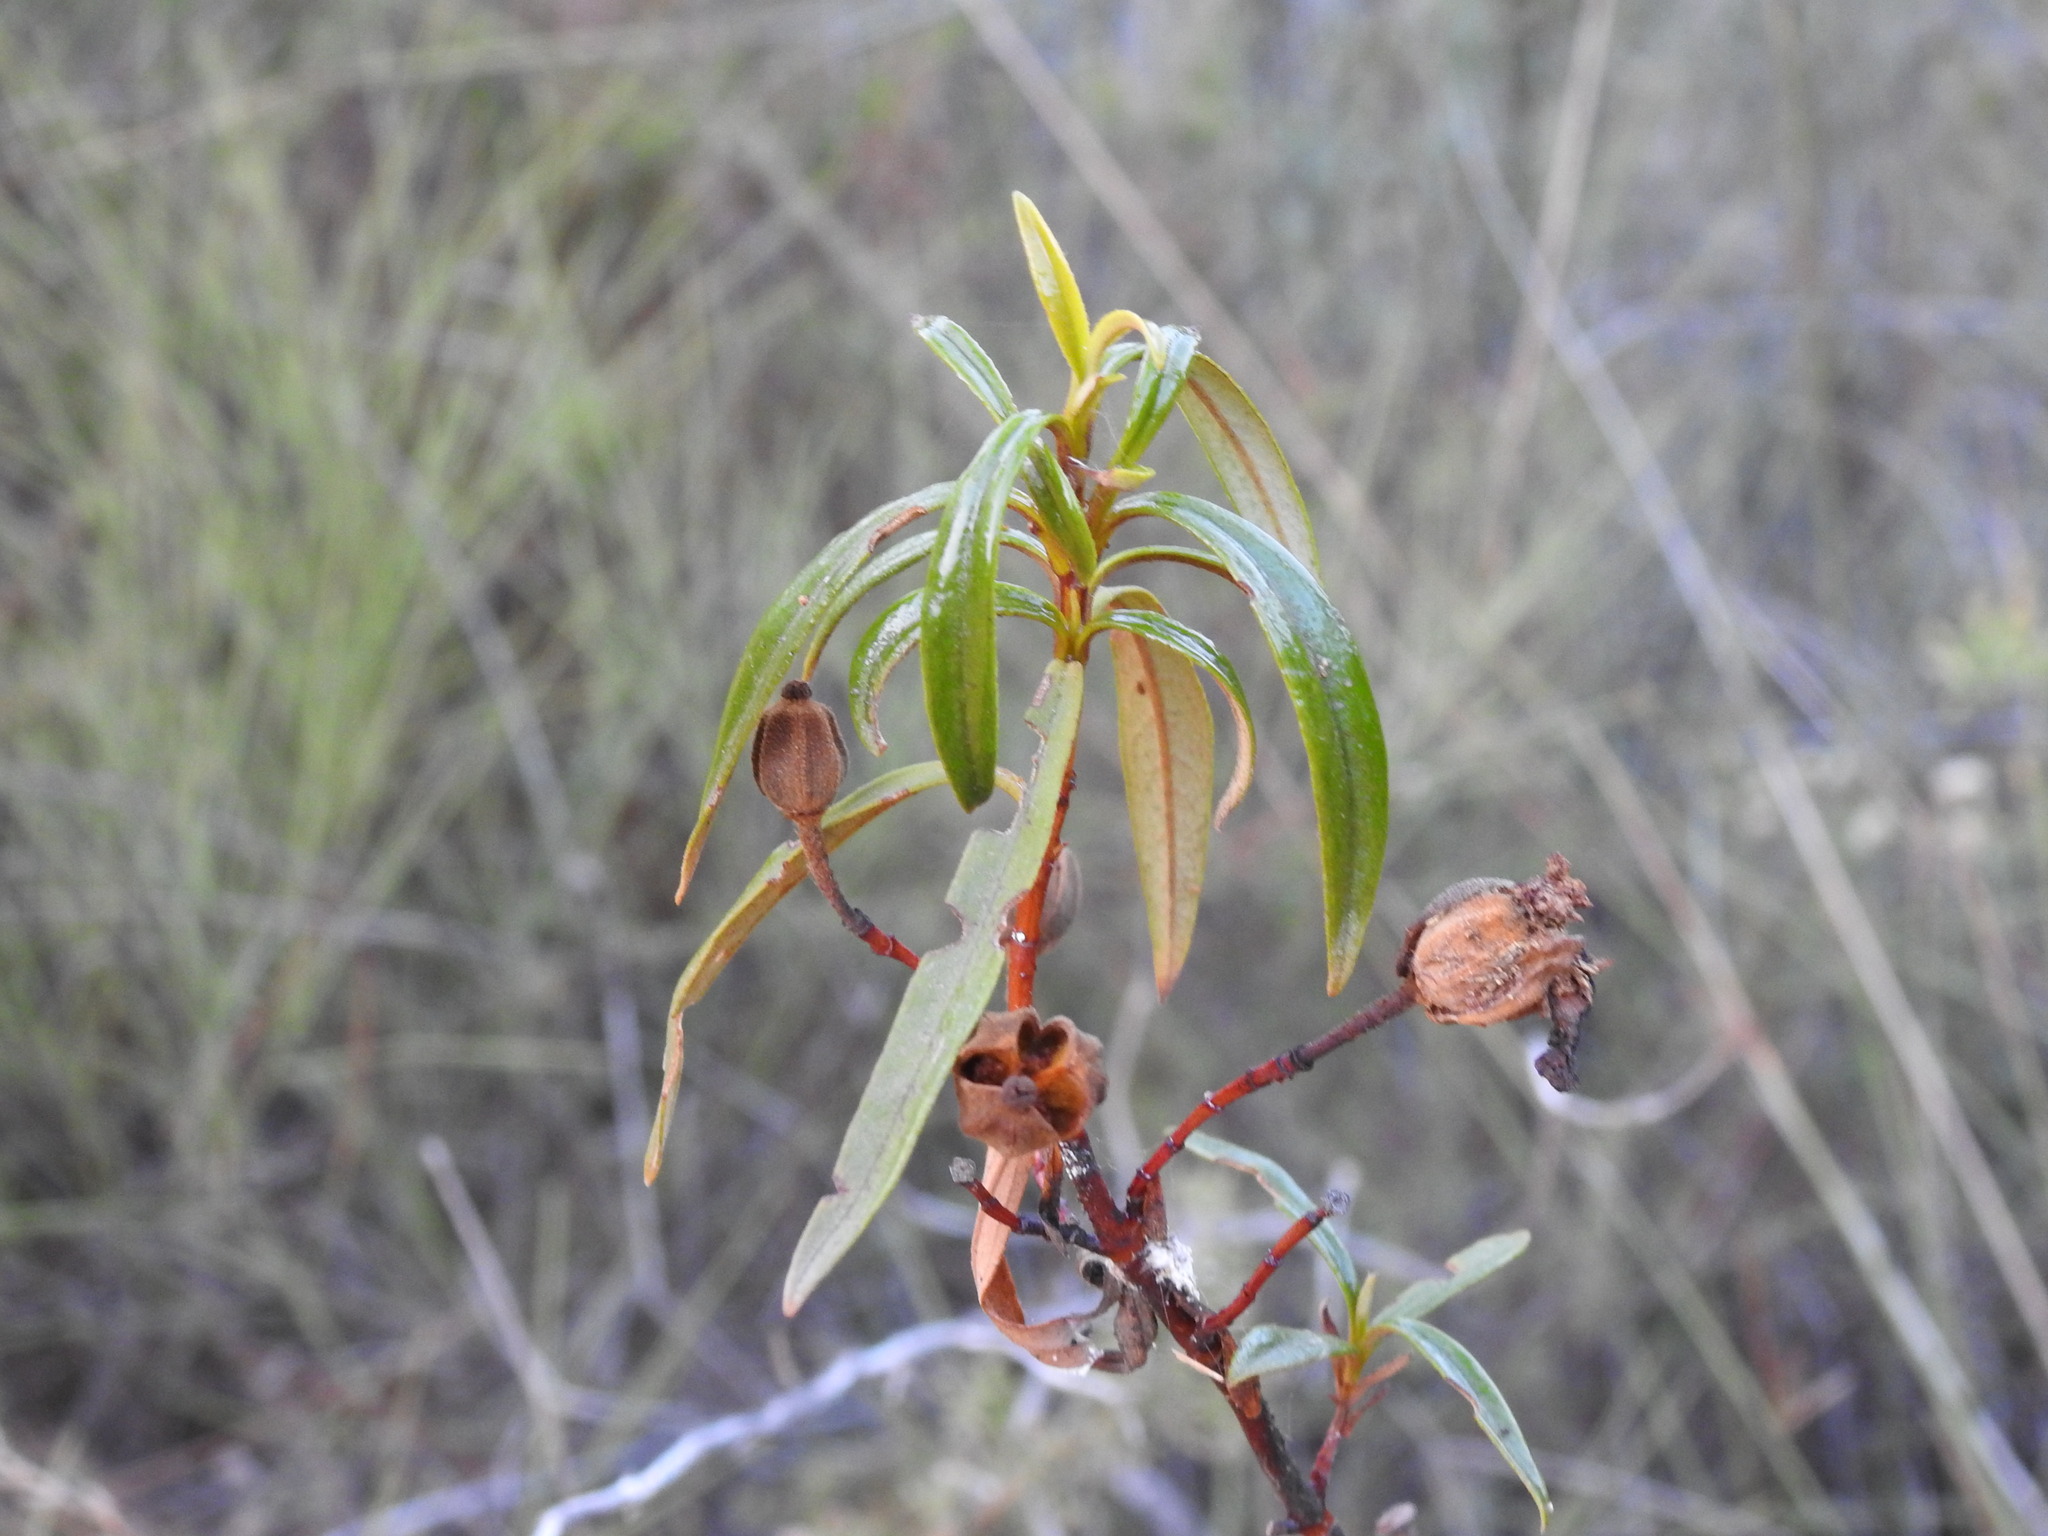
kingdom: Plantae
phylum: Tracheophyta
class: Magnoliopsida
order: Malvales
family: Cistaceae
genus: Cistus
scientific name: Cistus ladanifer
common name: Common gum cistus
